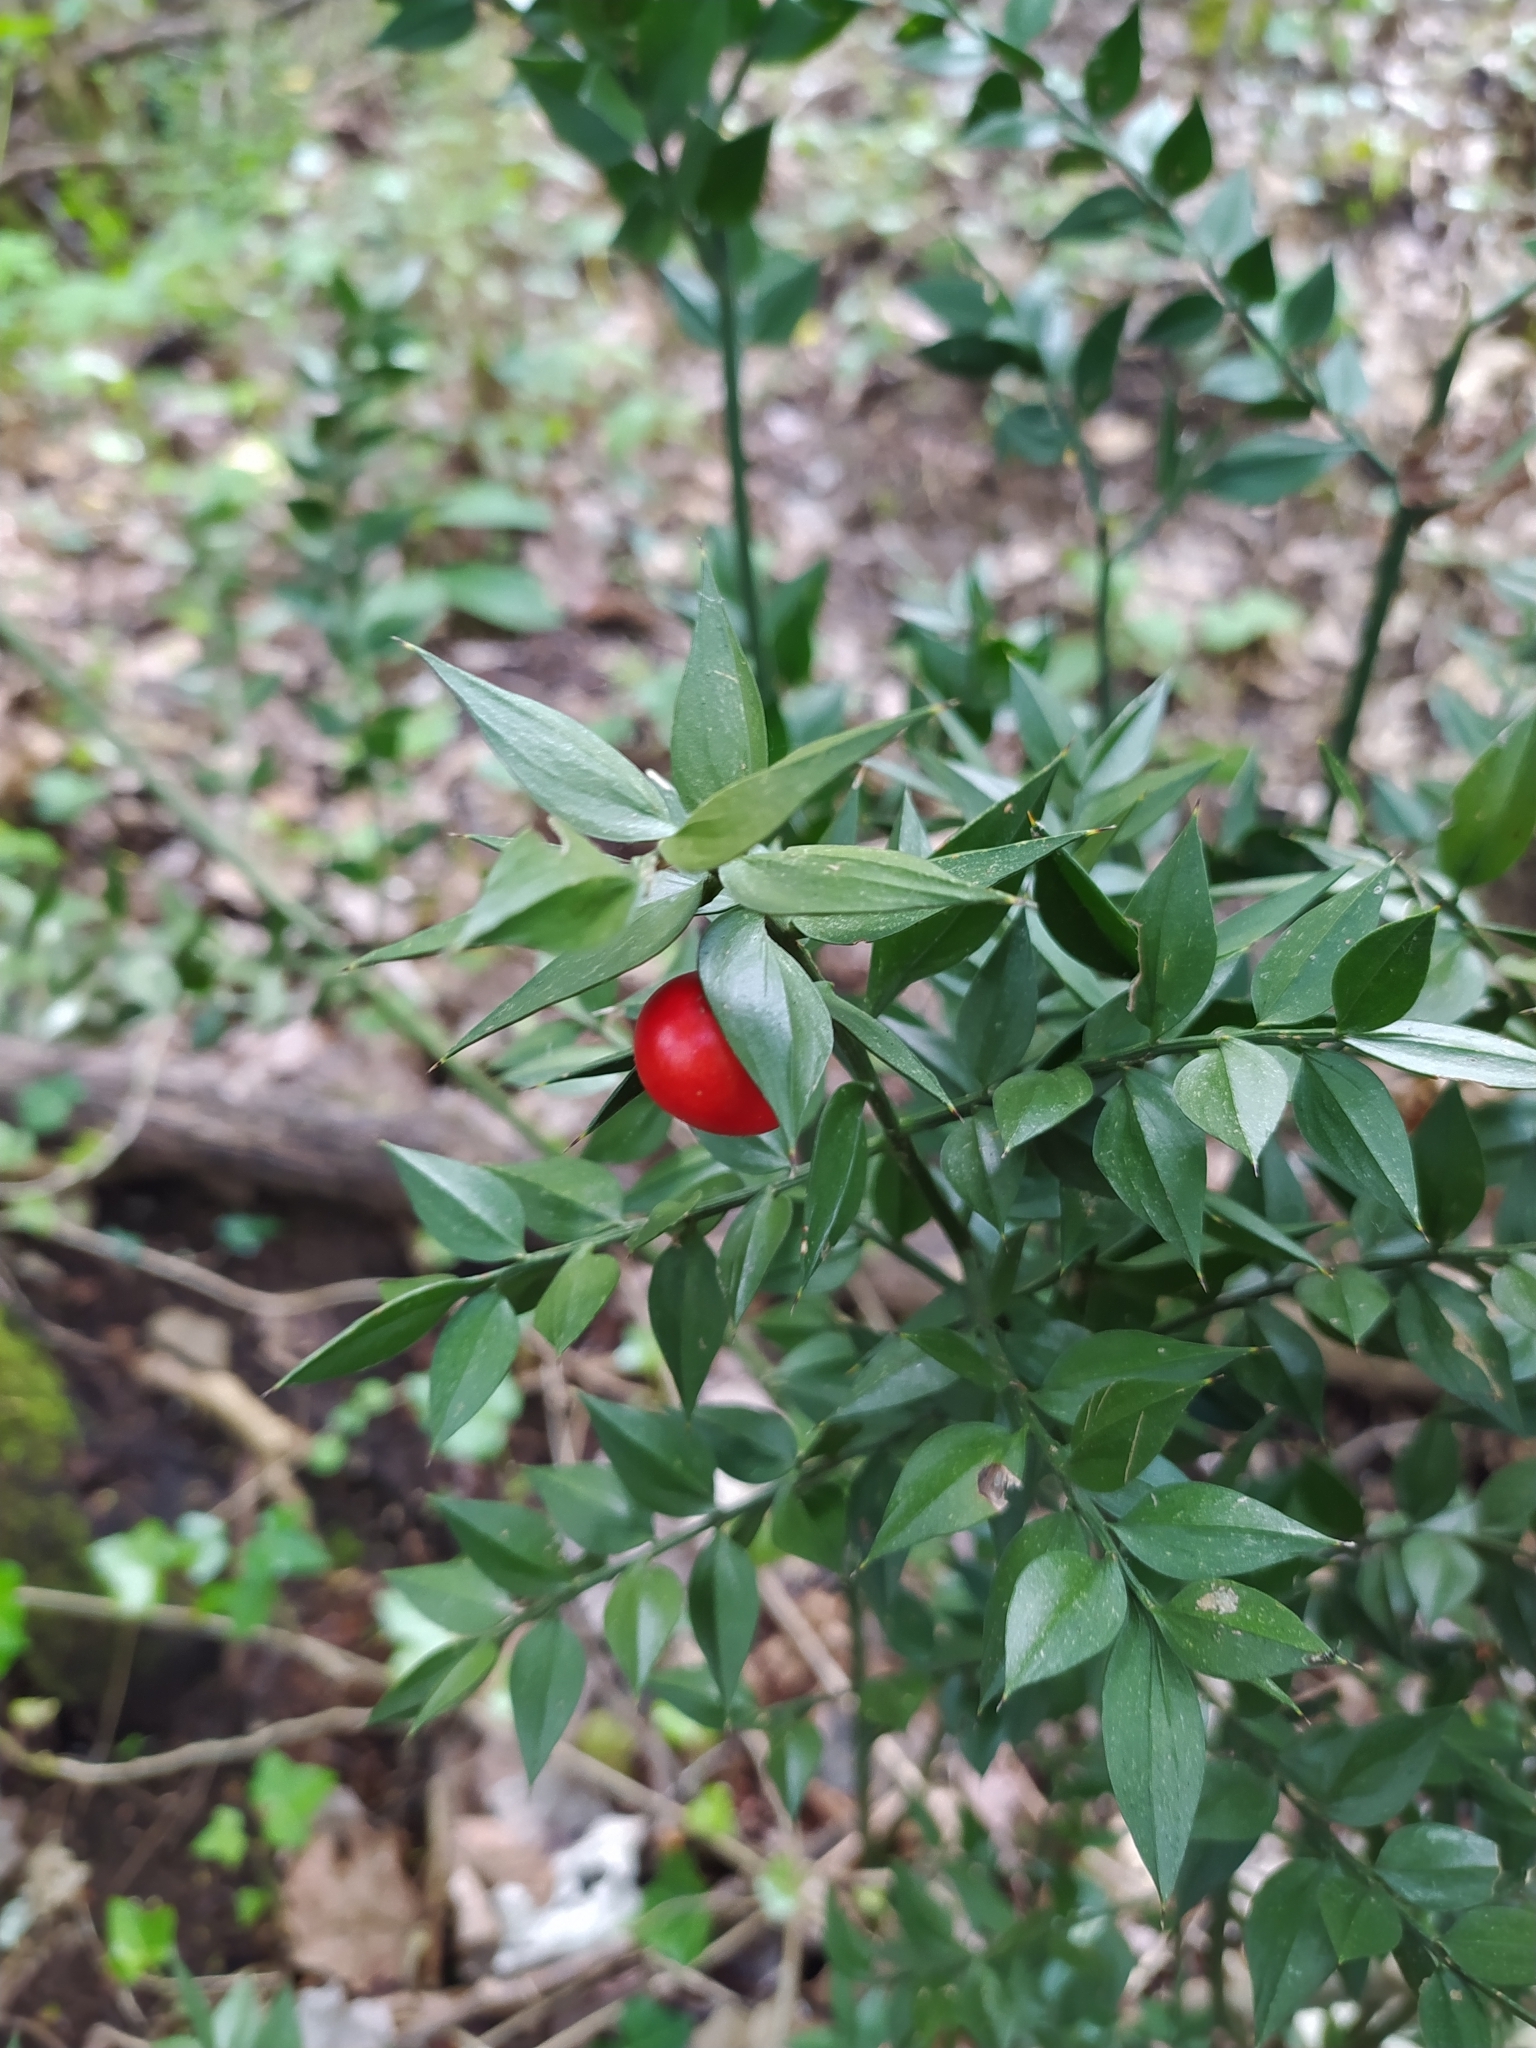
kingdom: Plantae
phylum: Tracheophyta
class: Liliopsida
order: Asparagales
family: Asparagaceae
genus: Ruscus
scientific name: Ruscus aculeatus
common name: Butcher's-broom
